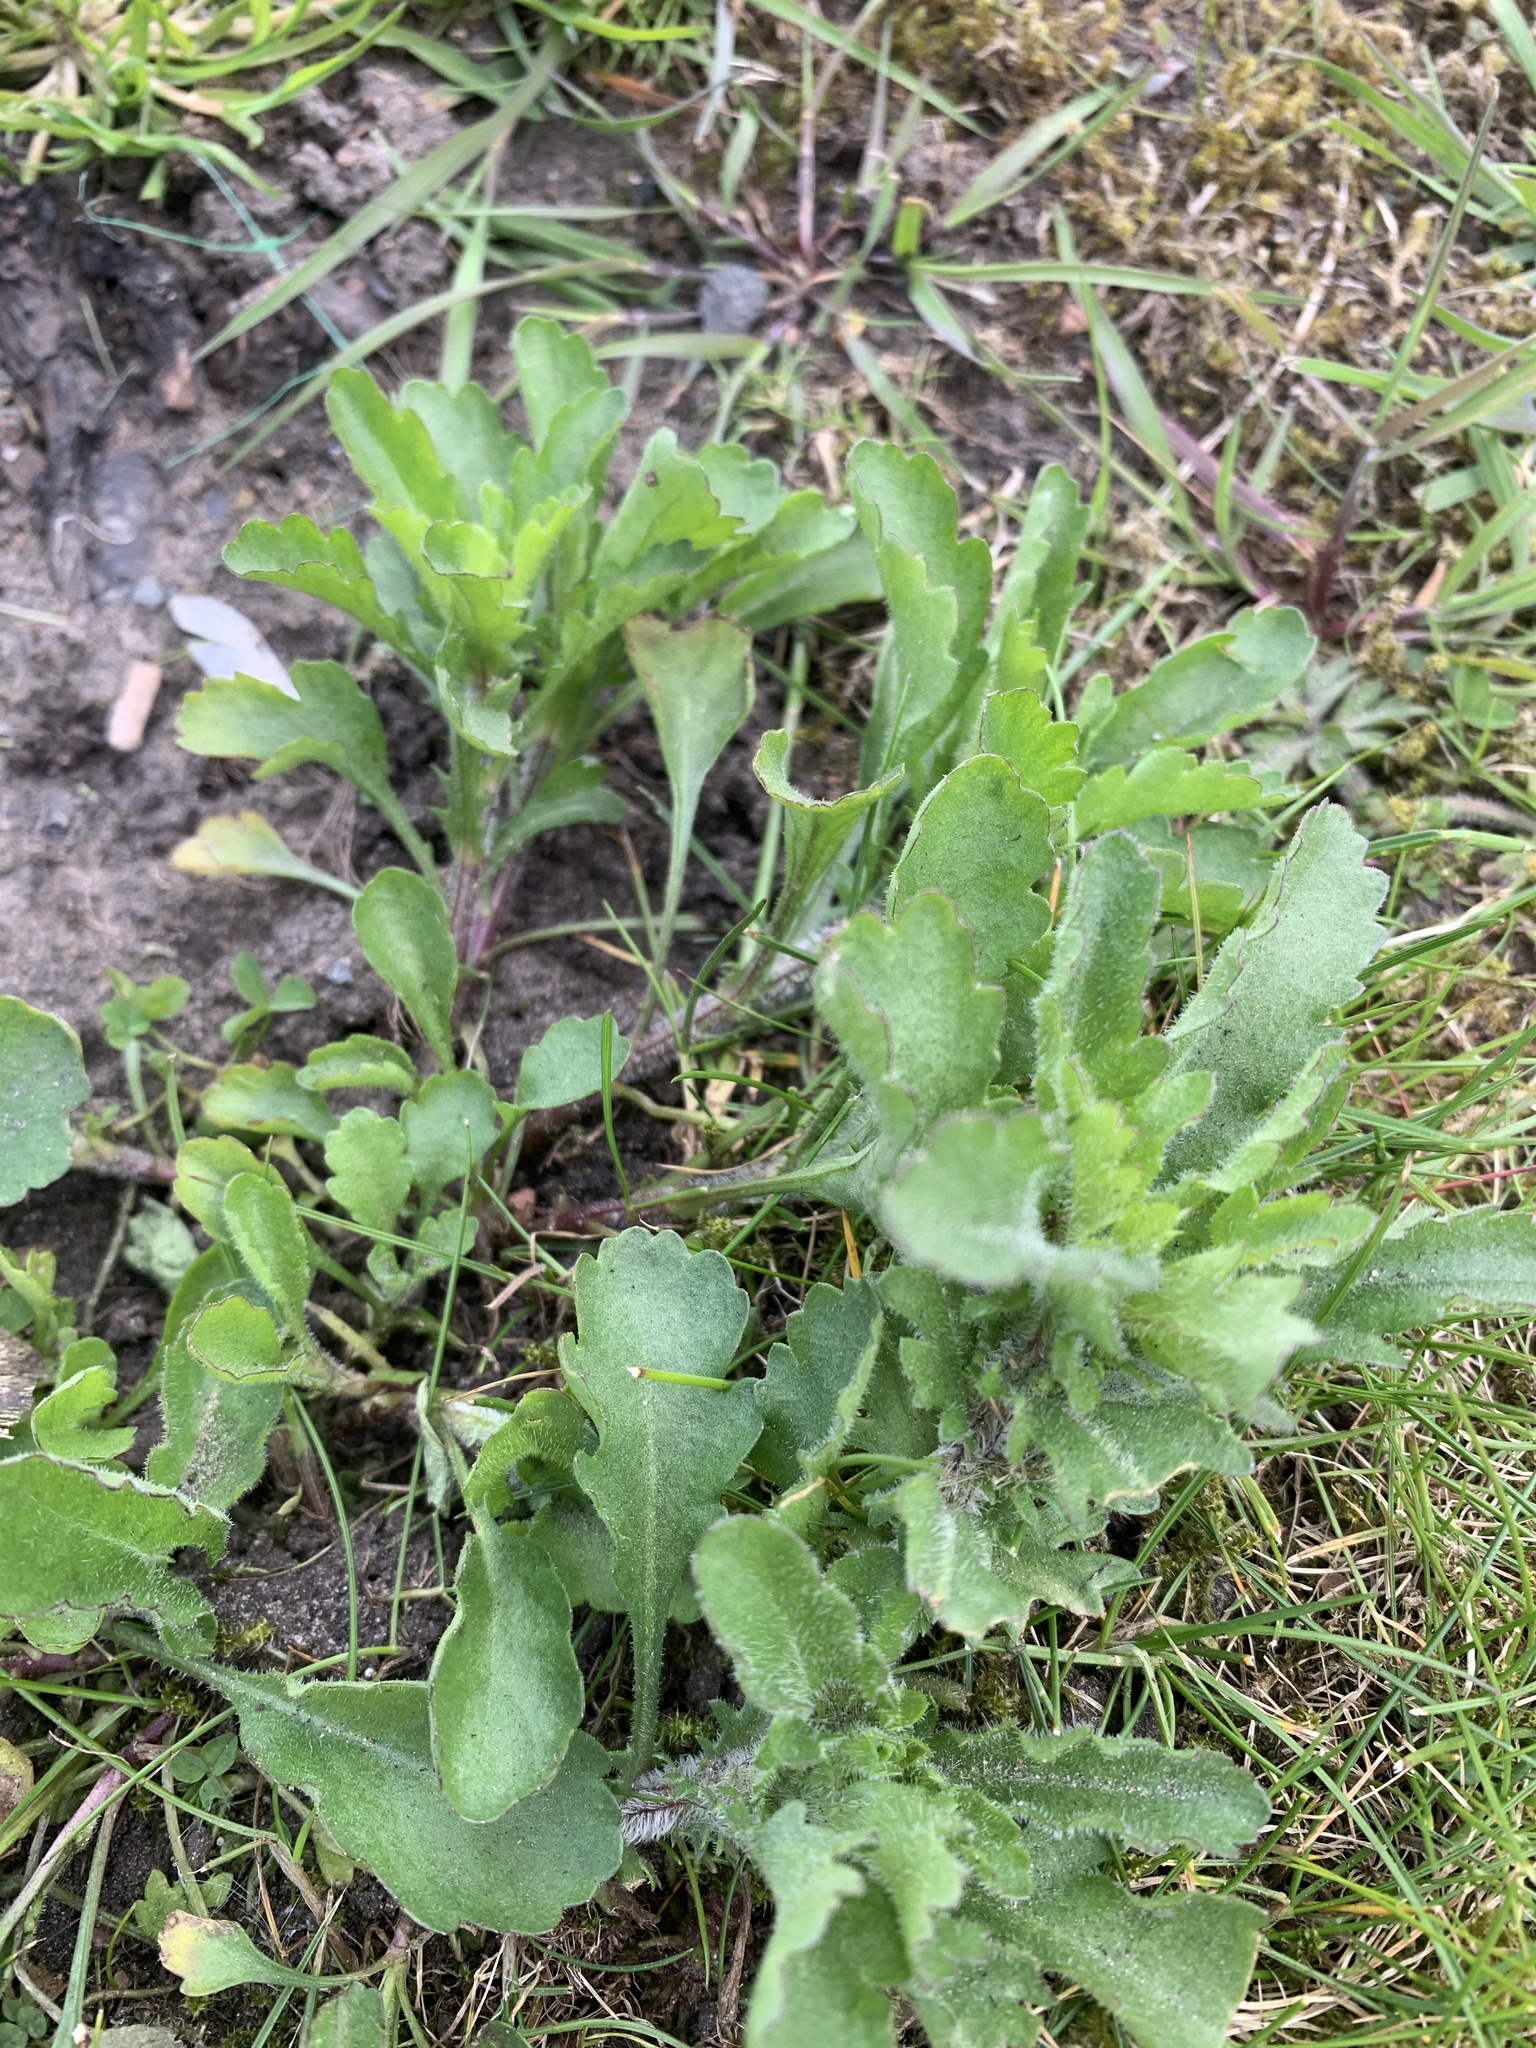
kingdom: Plantae
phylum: Tracheophyta
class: Magnoliopsida
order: Asterales
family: Asteraceae
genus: Leucanthemum
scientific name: Leucanthemum vulgare
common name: Oxeye daisy
